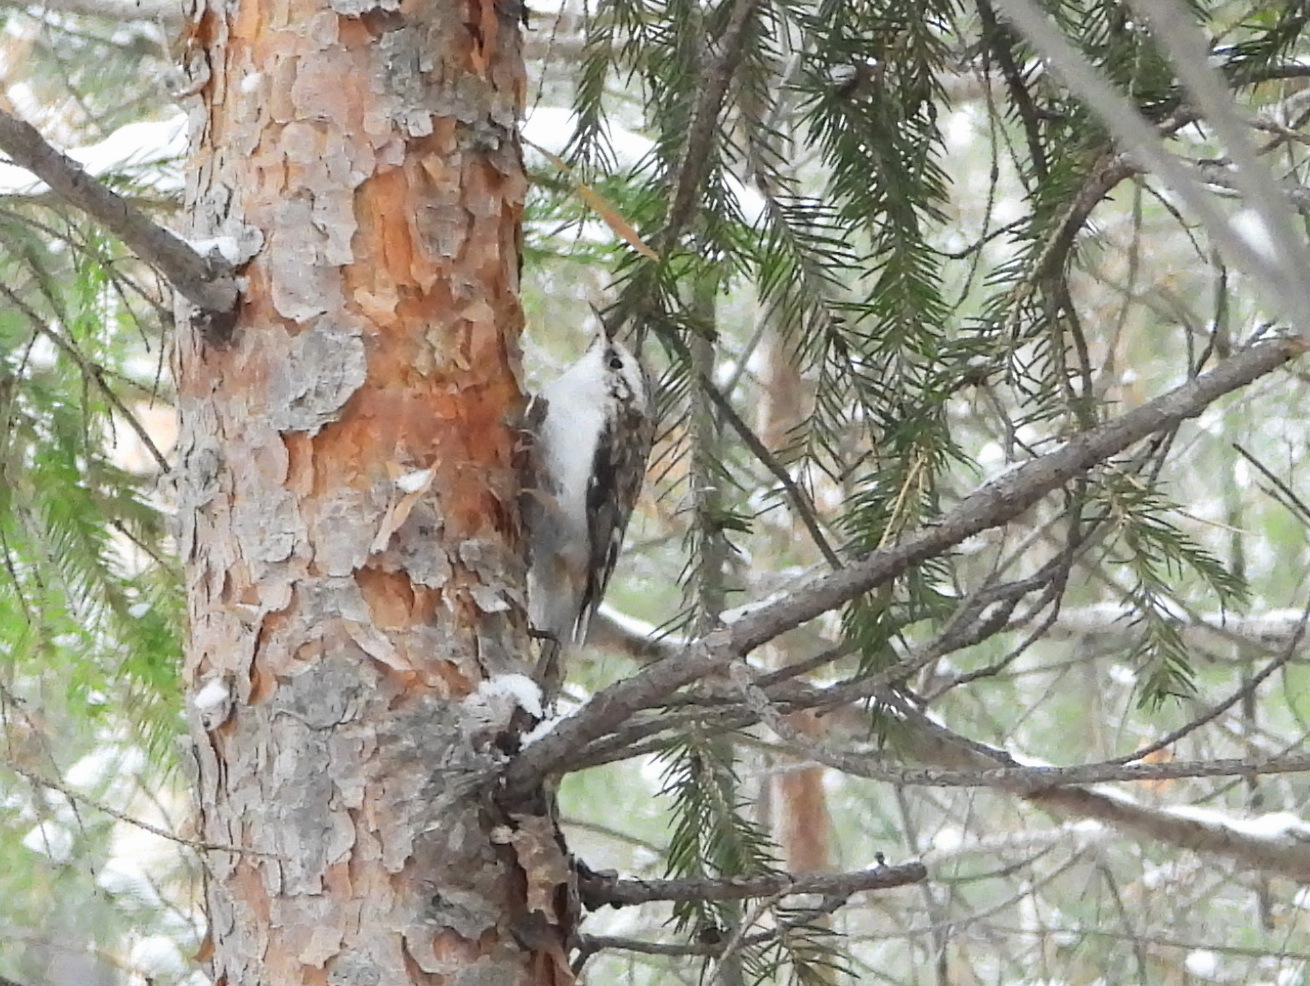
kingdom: Animalia
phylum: Chordata
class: Aves
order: Passeriformes
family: Certhiidae
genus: Certhia
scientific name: Certhia familiaris
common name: Eurasian treecreeper
